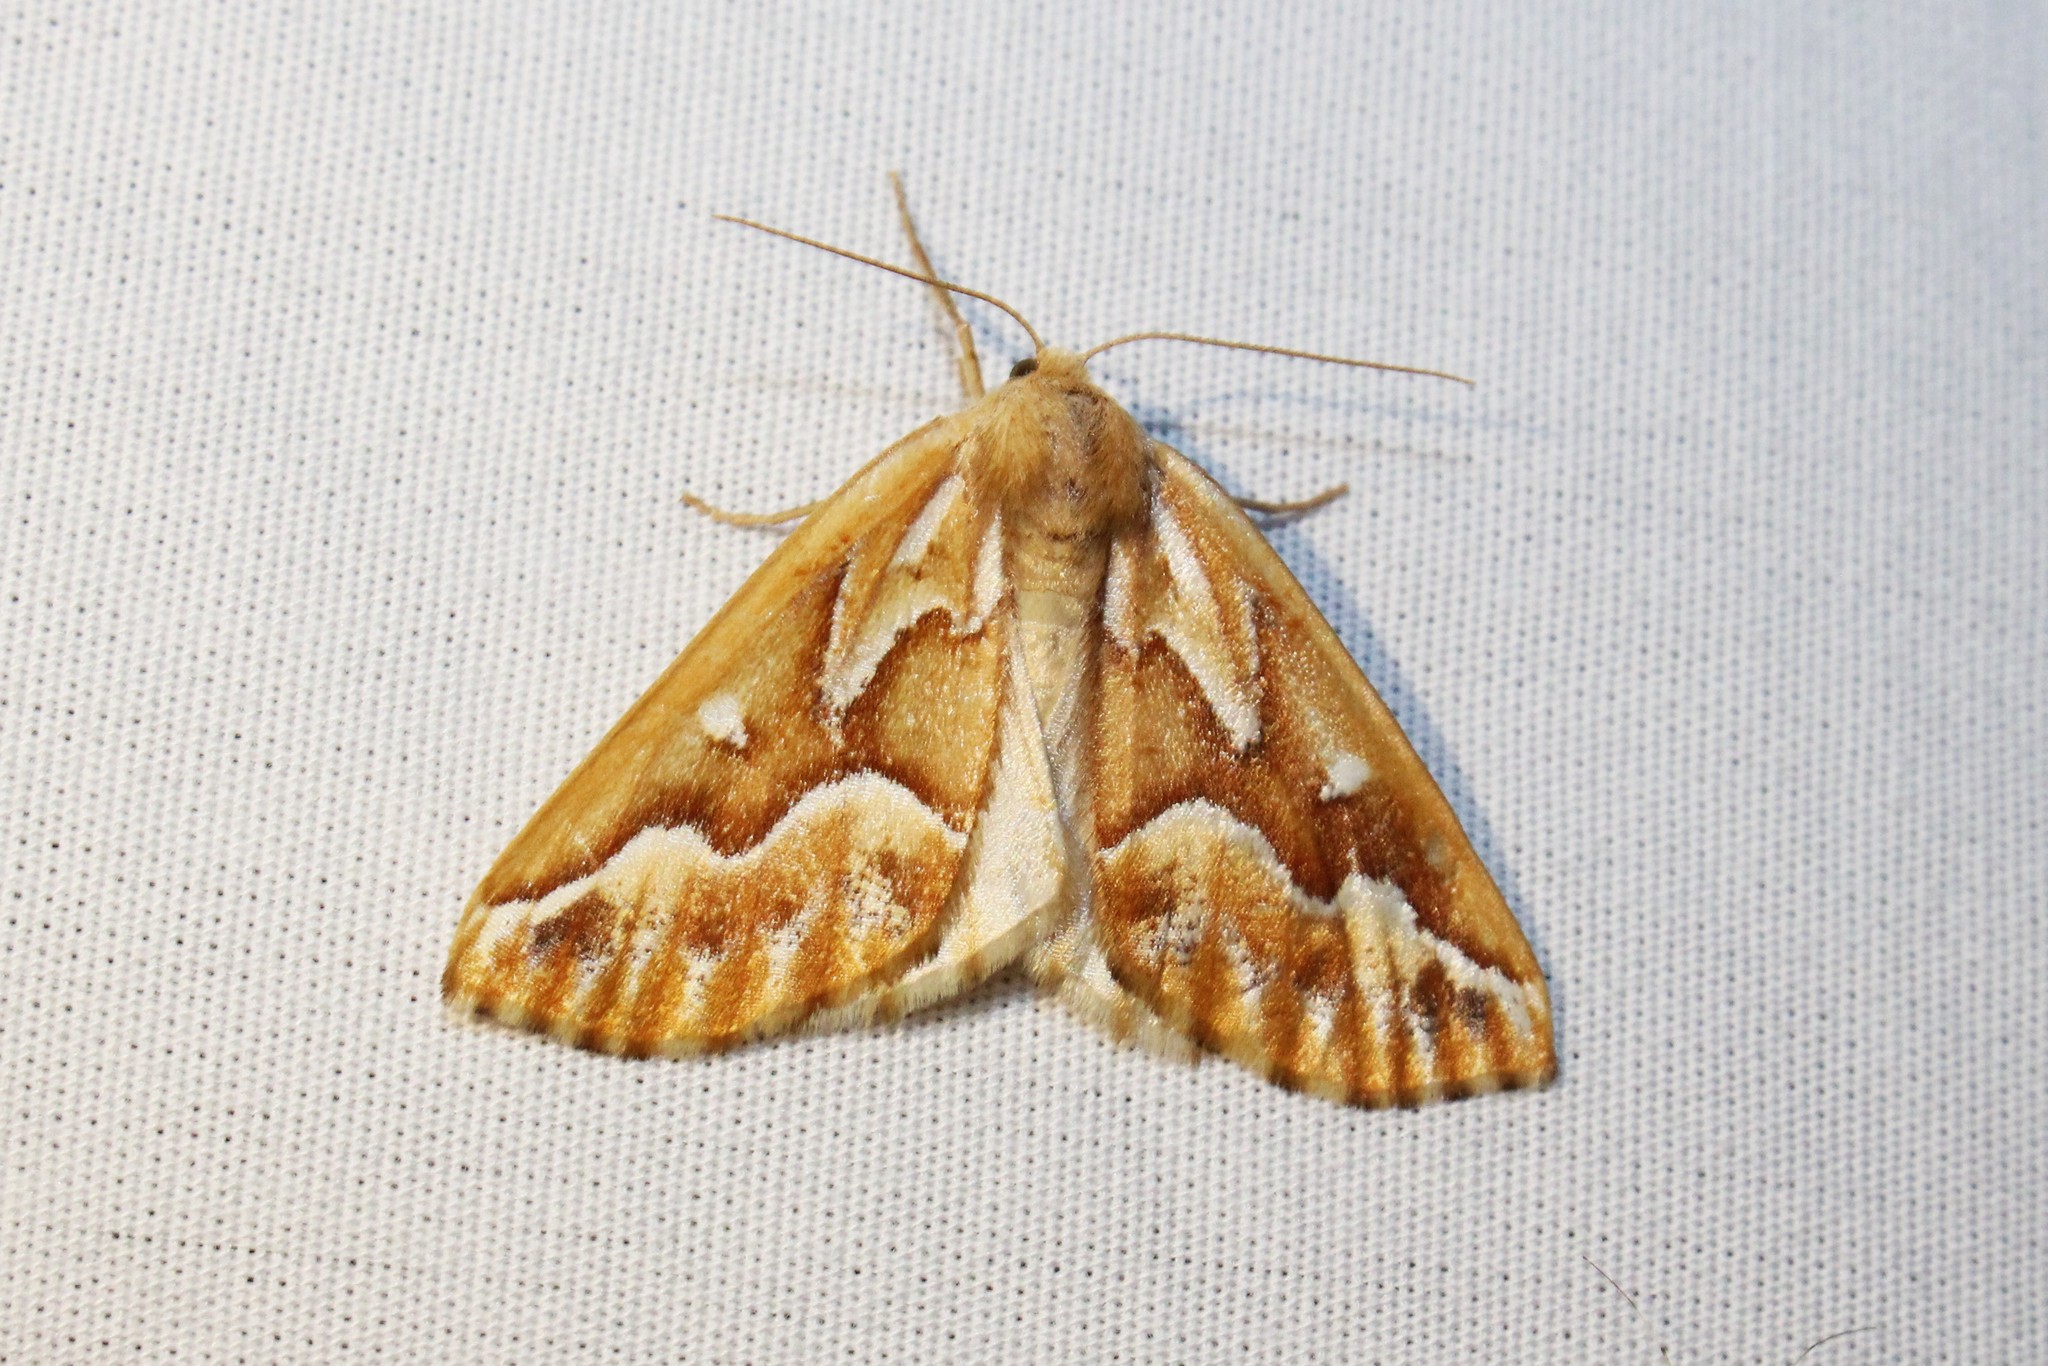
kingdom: Animalia
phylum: Arthropoda
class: Insecta
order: Lepidoptera
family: Geometridae
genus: Caripeta
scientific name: Caripeta piniata
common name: Northern pine looper moth
